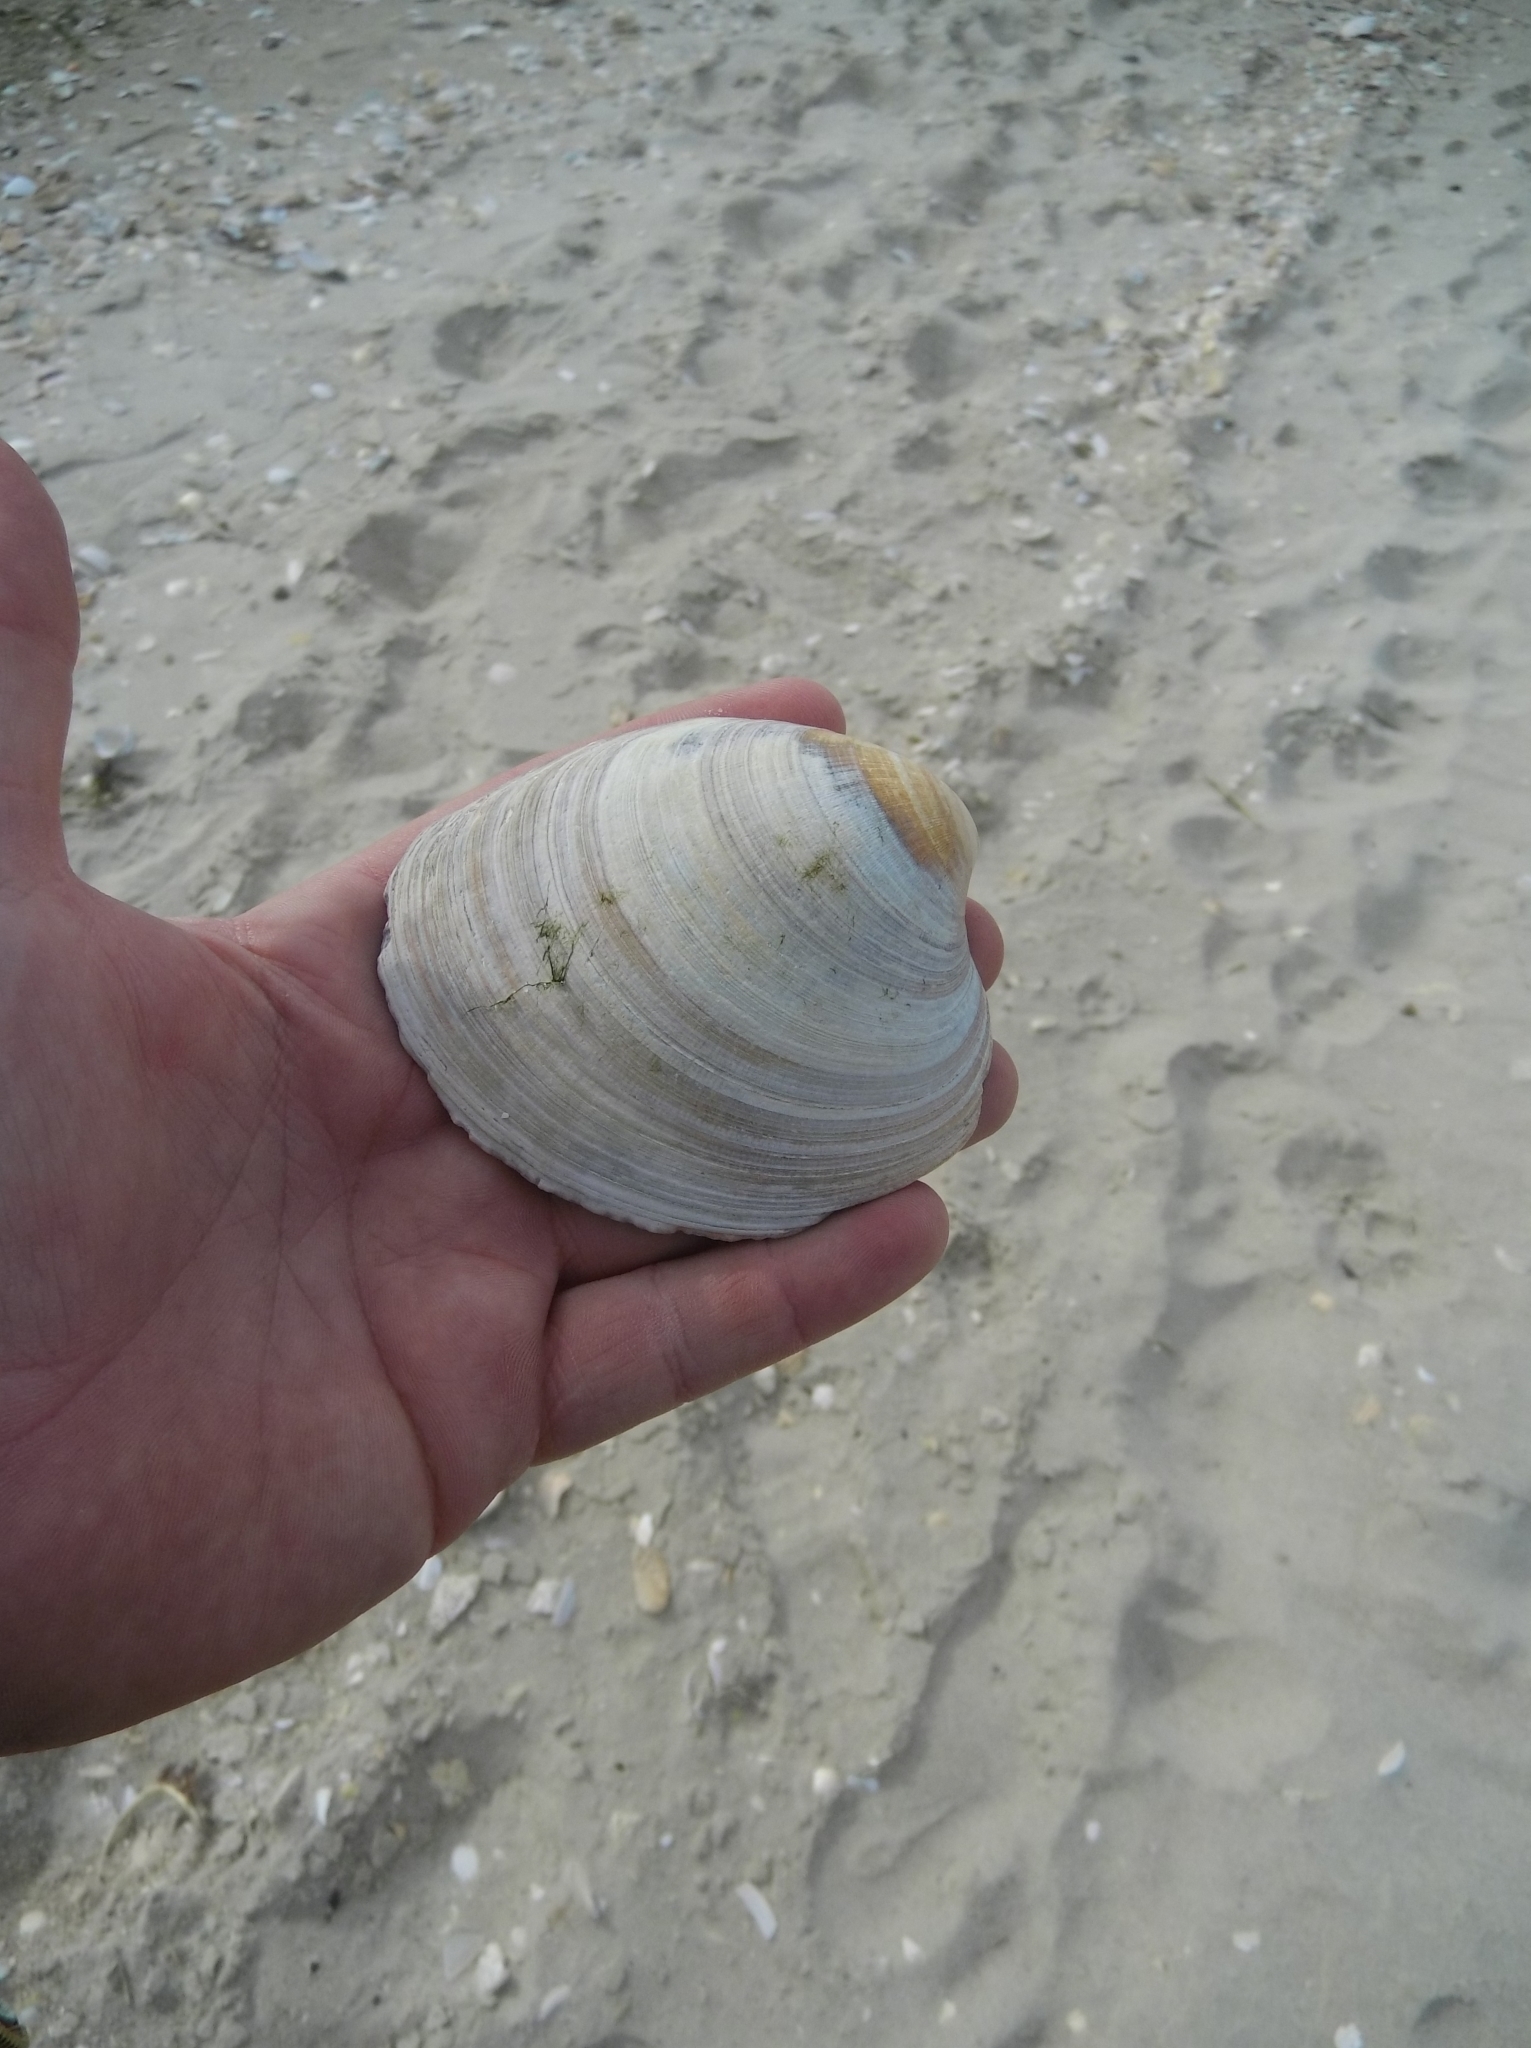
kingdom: Animalia
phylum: Mollusca
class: Bivalvia
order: Venerida
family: Mactridae
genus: Spisula
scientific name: Spisula solidissima
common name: Atlantic surf clam
